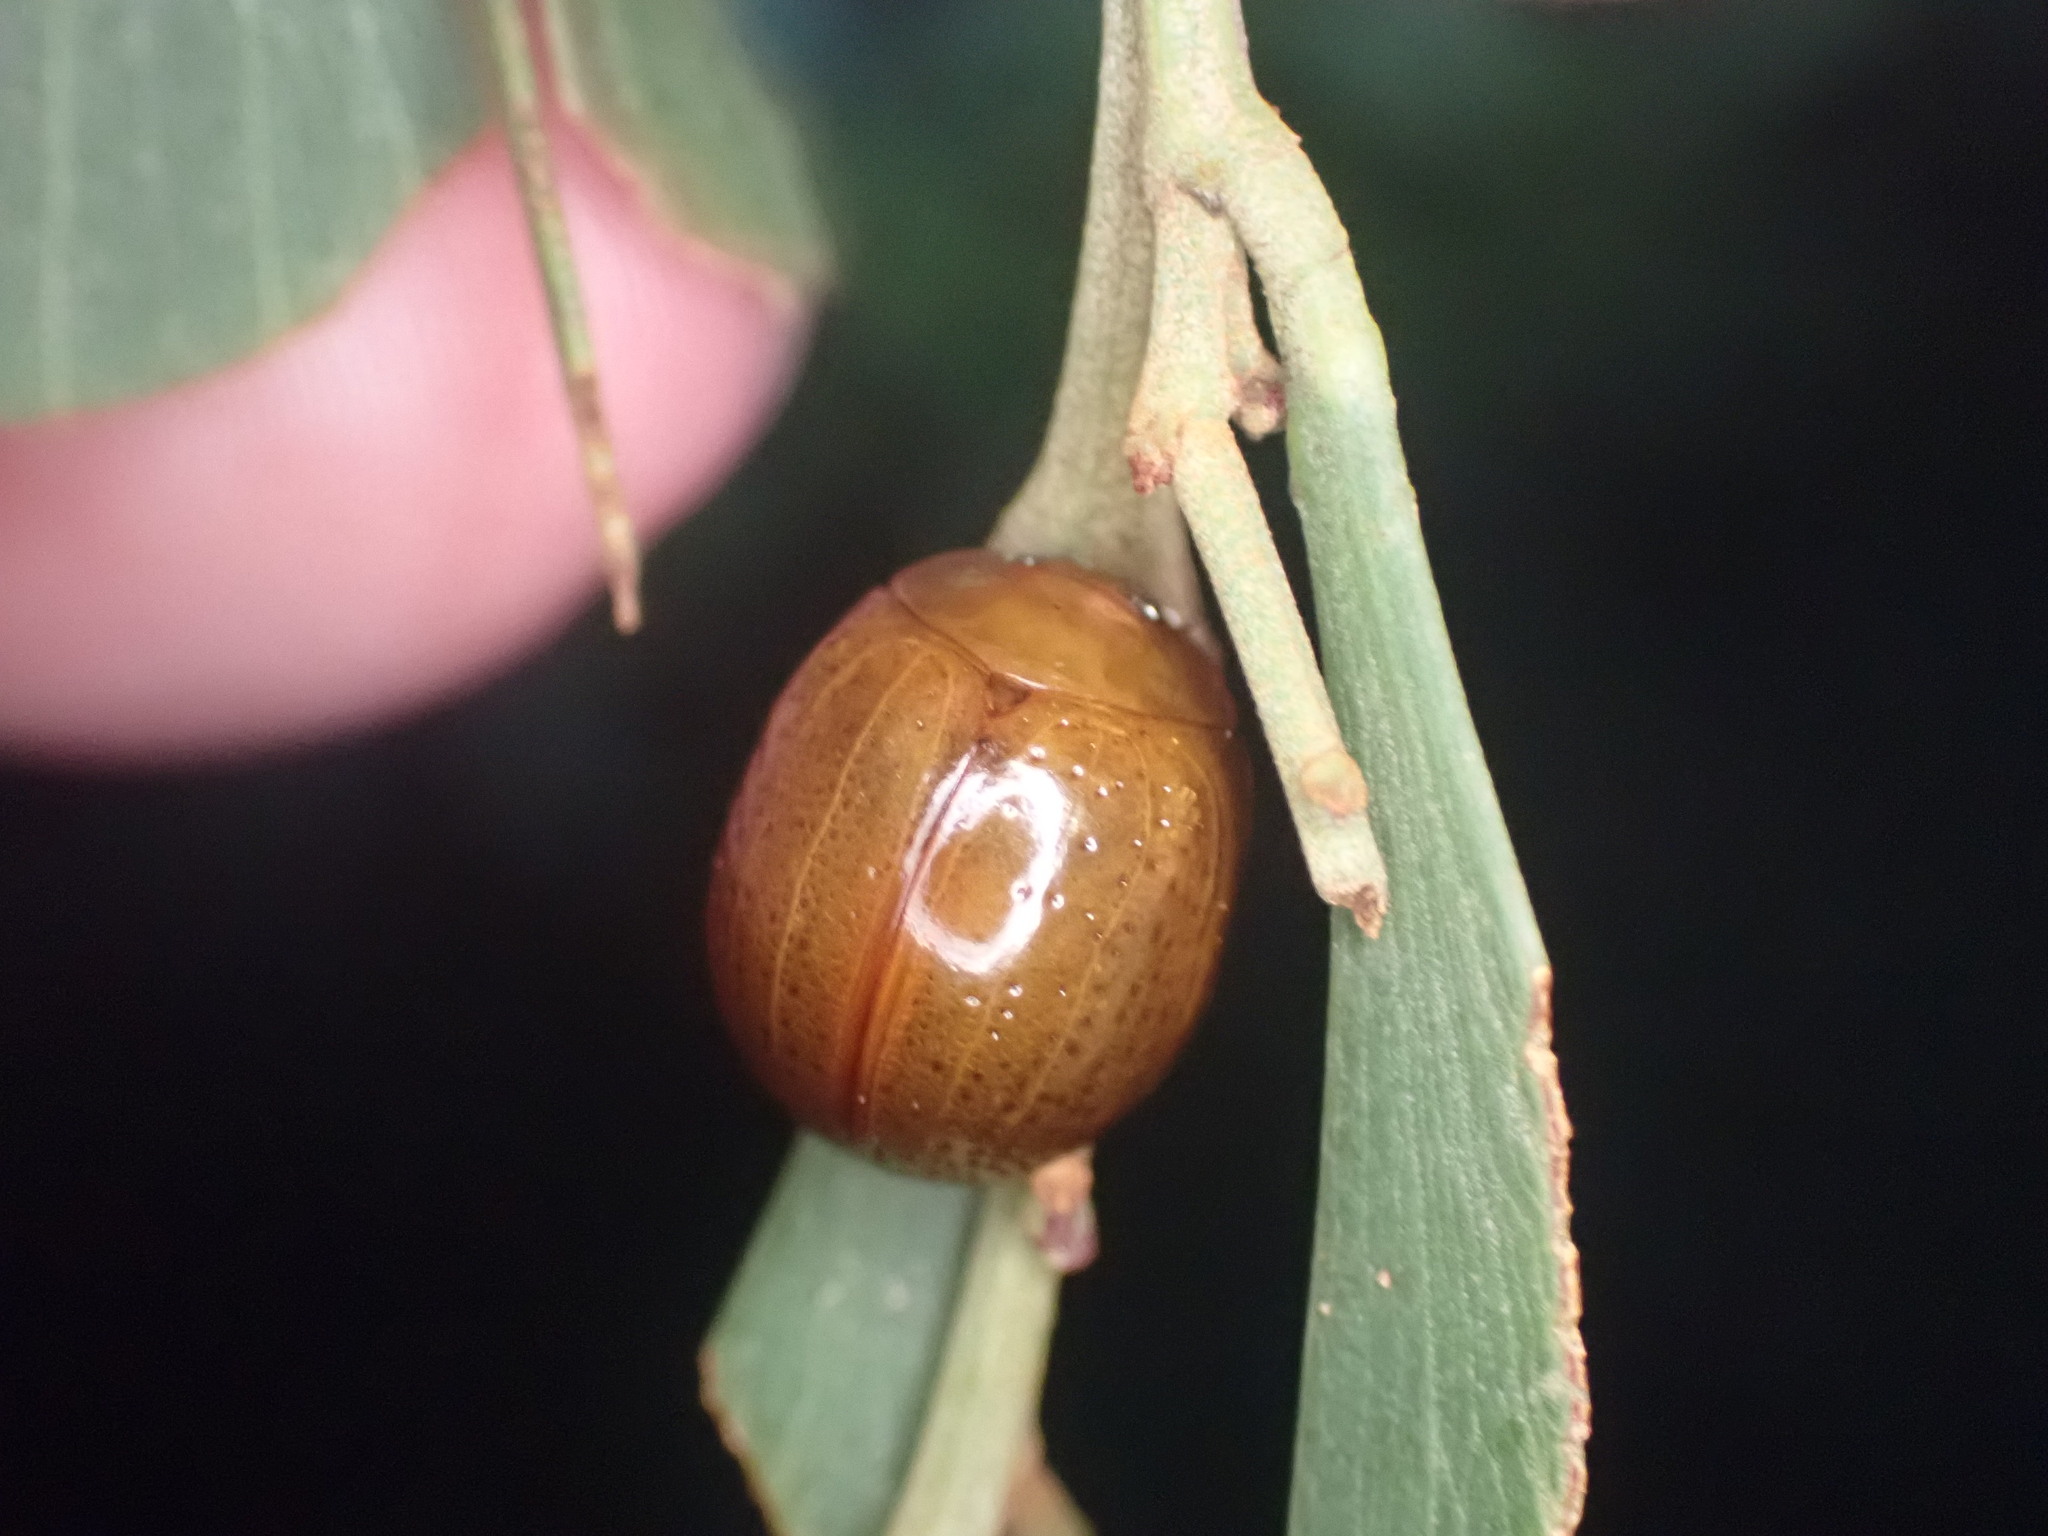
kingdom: Animalia
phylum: Arthropoda
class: Insecta
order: Coleoptera
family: Chrysomelidae
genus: Dicranosterna
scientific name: Dicranosterna
